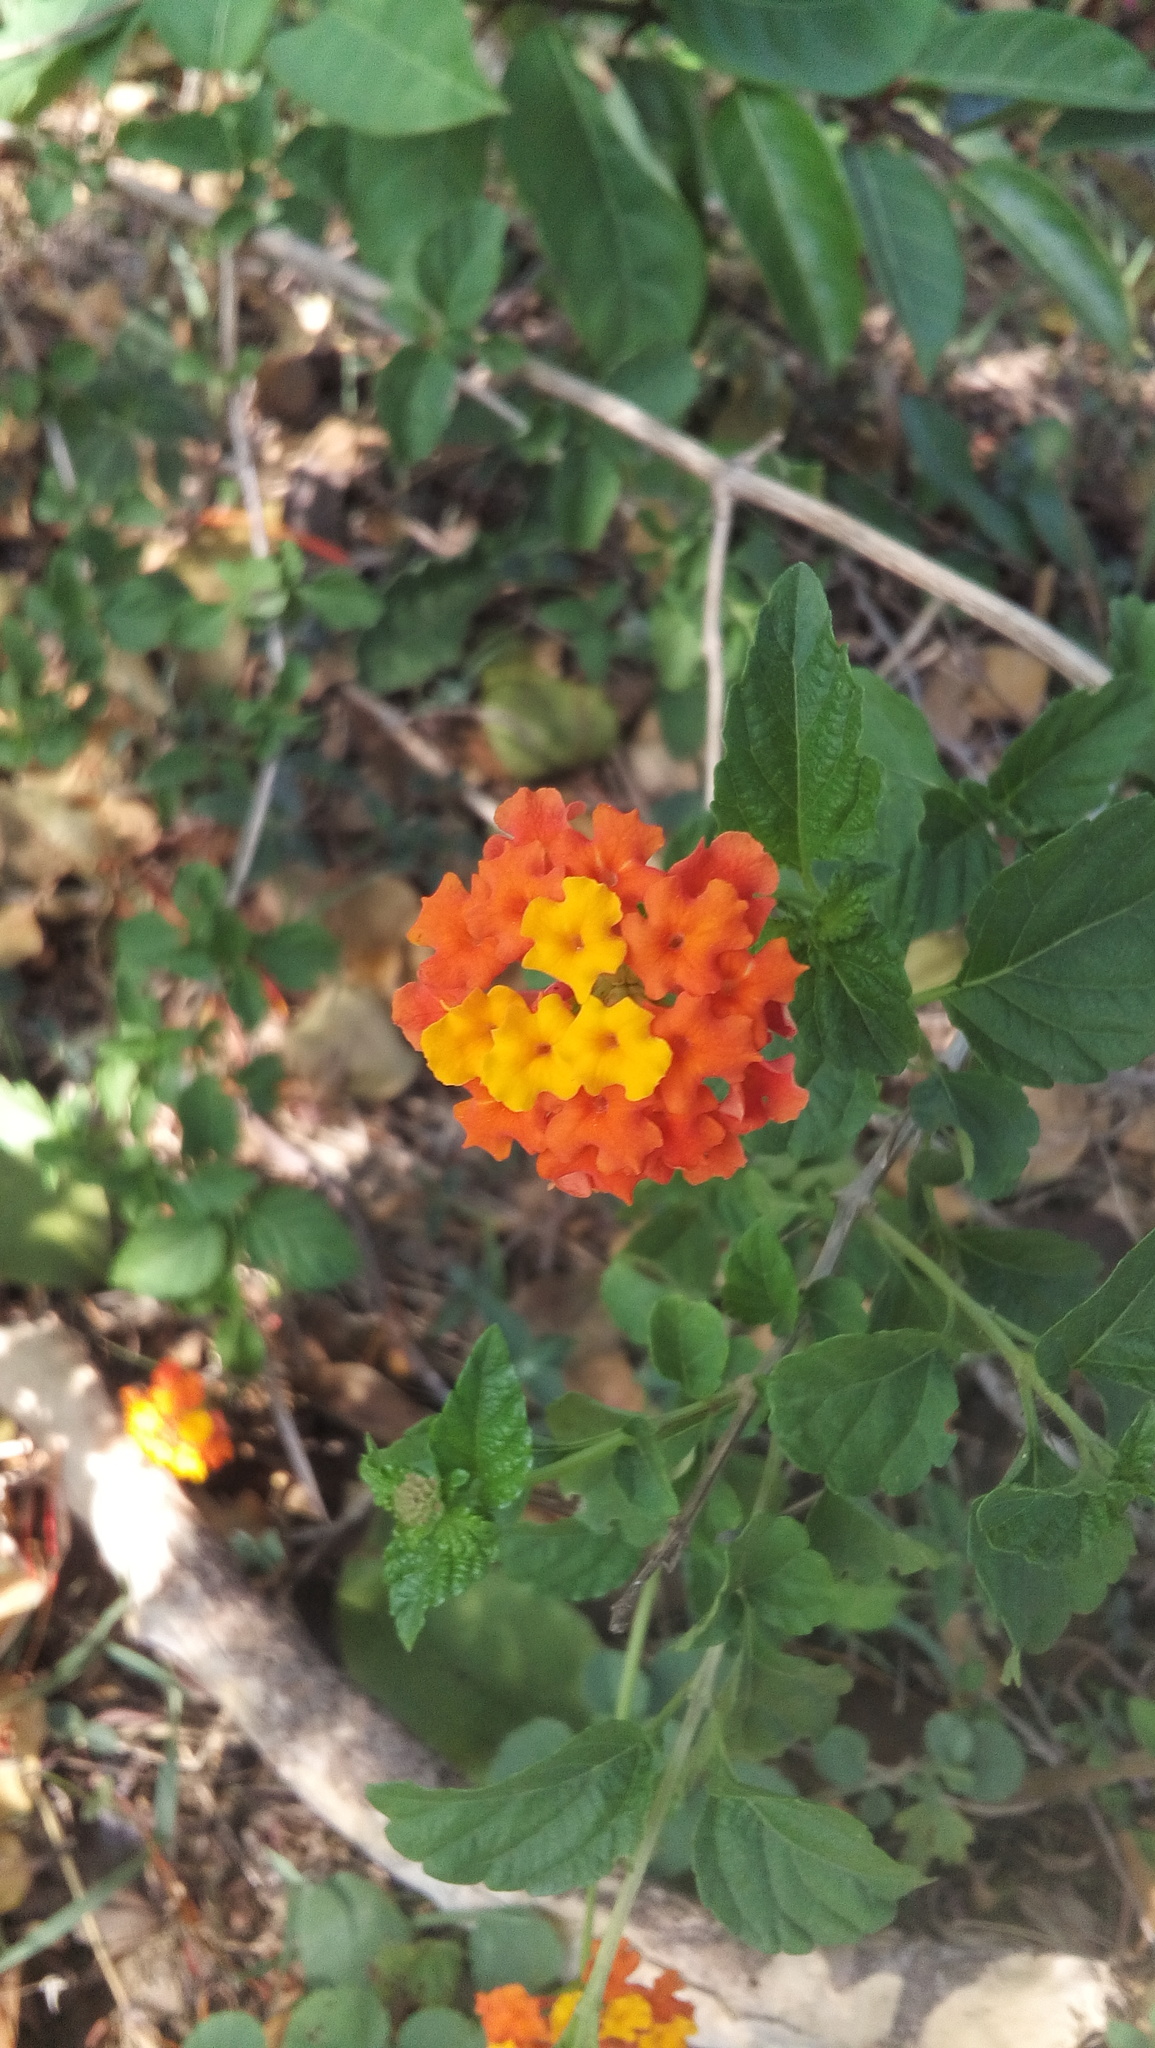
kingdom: Plantae
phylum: Tracheophyta
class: Magnoliopsida
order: Lamiales
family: Verbenaceae
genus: Lantana
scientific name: Lantana camara
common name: Lantana
